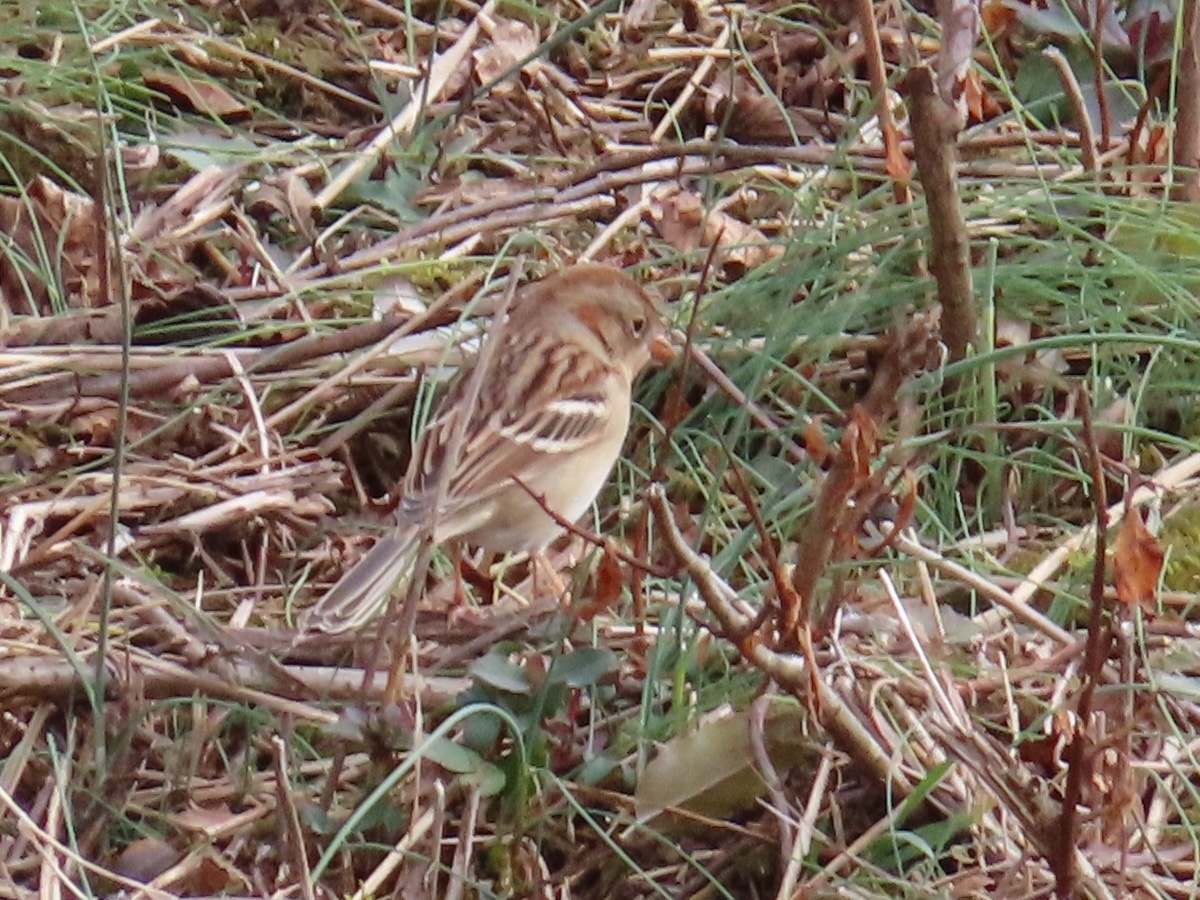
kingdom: Animalia
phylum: Chordata
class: Aves
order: Passeriformes
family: Passerellidae
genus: Spizella
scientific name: Spizella pusilla
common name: Field sparrow
